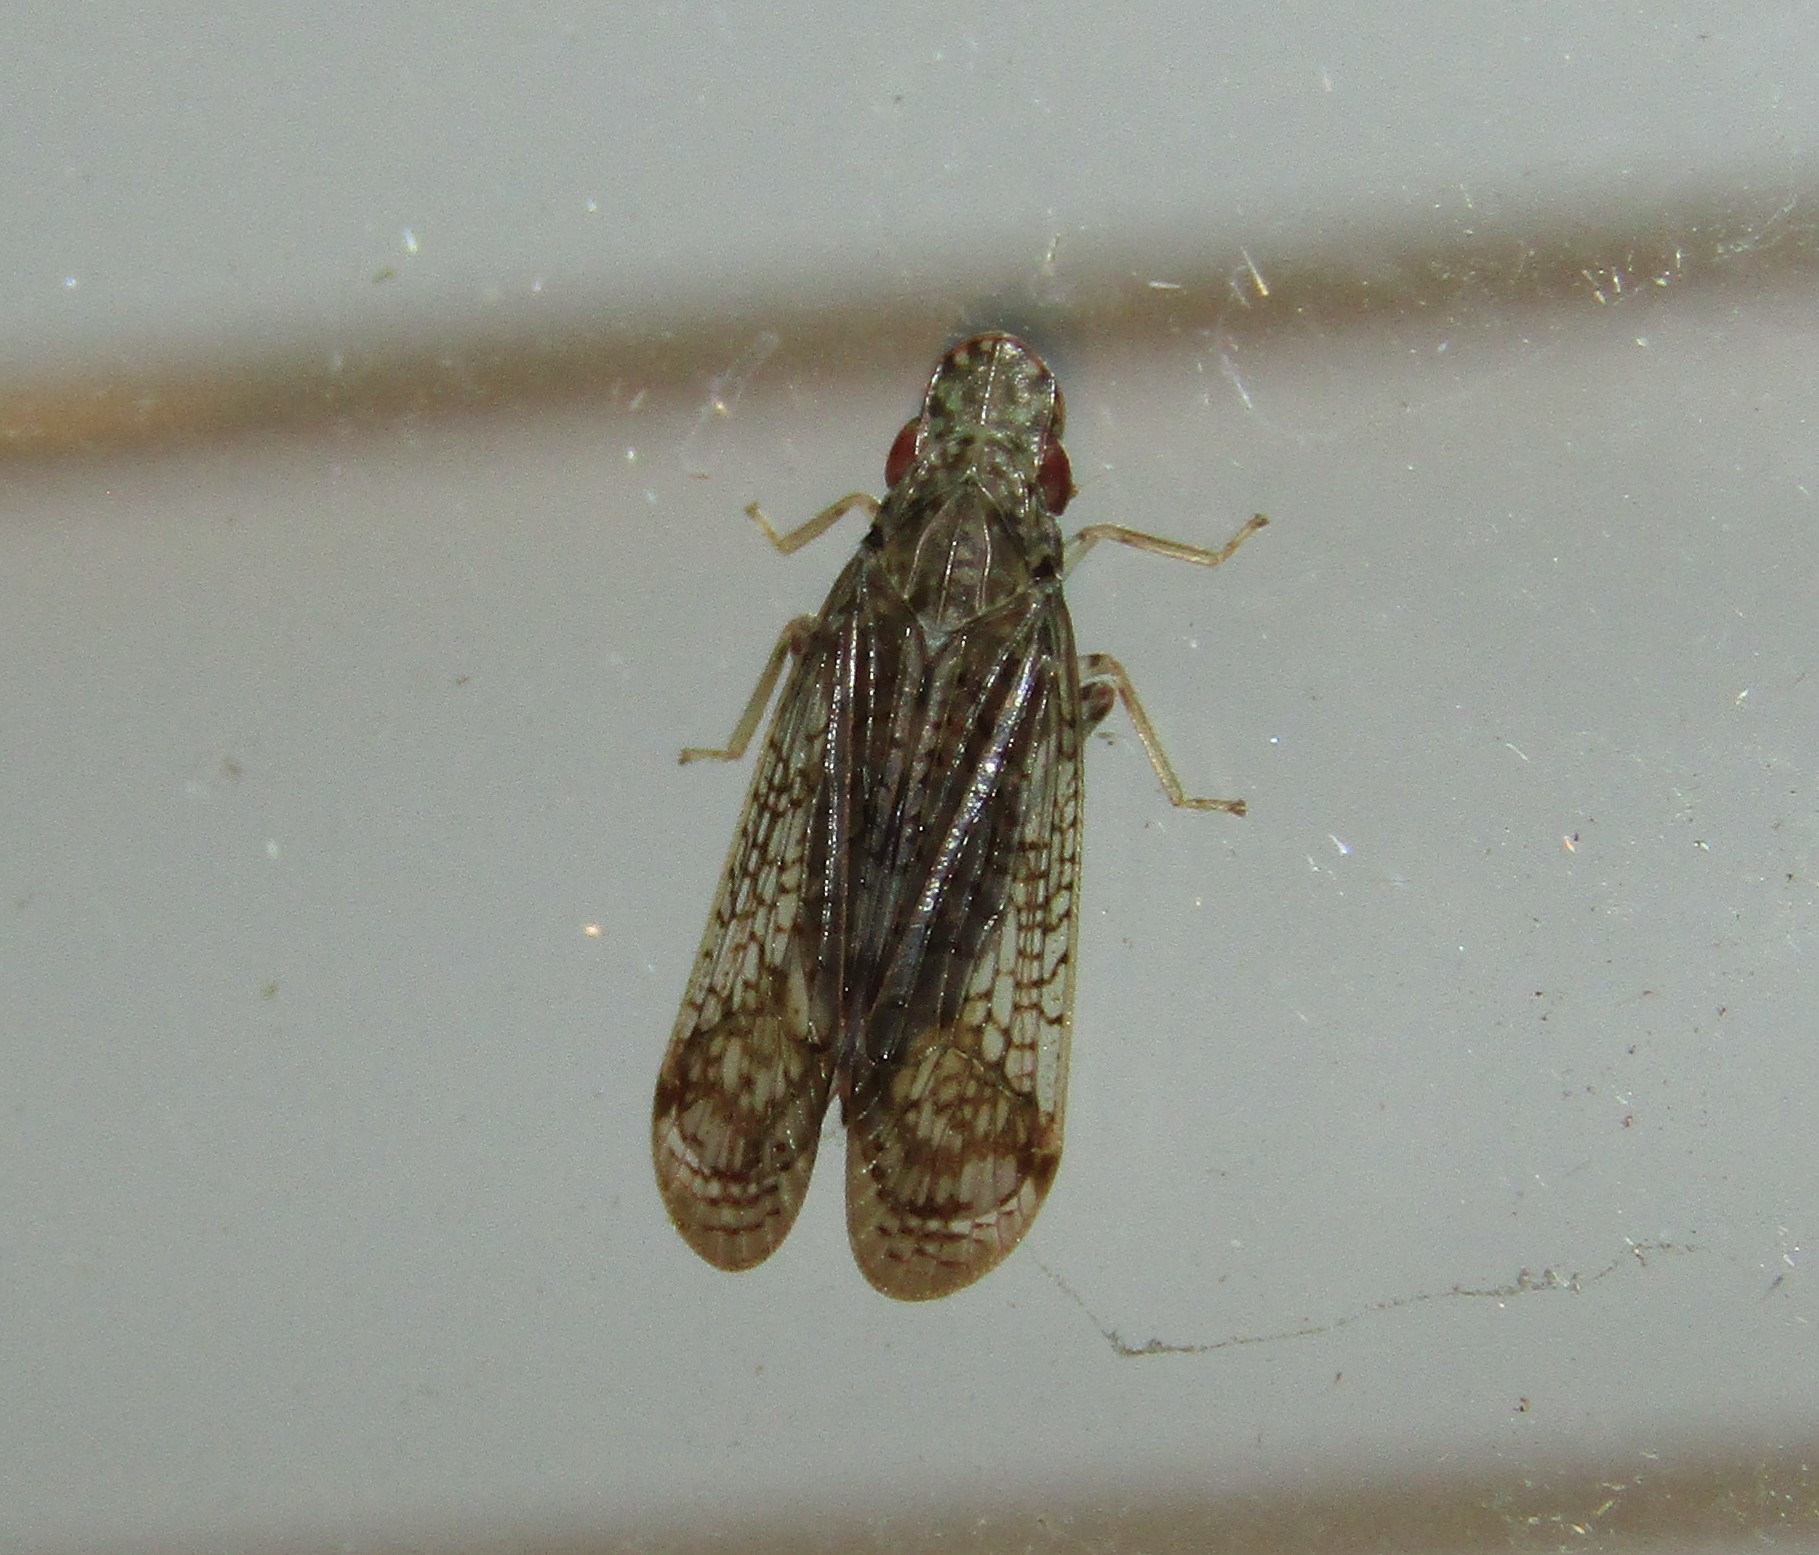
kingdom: Animalia
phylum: Arthropoda
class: Insecta
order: Hemiptera
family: Tropiduchidae
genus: Pelitropis
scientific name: Pelitropis rotulata
